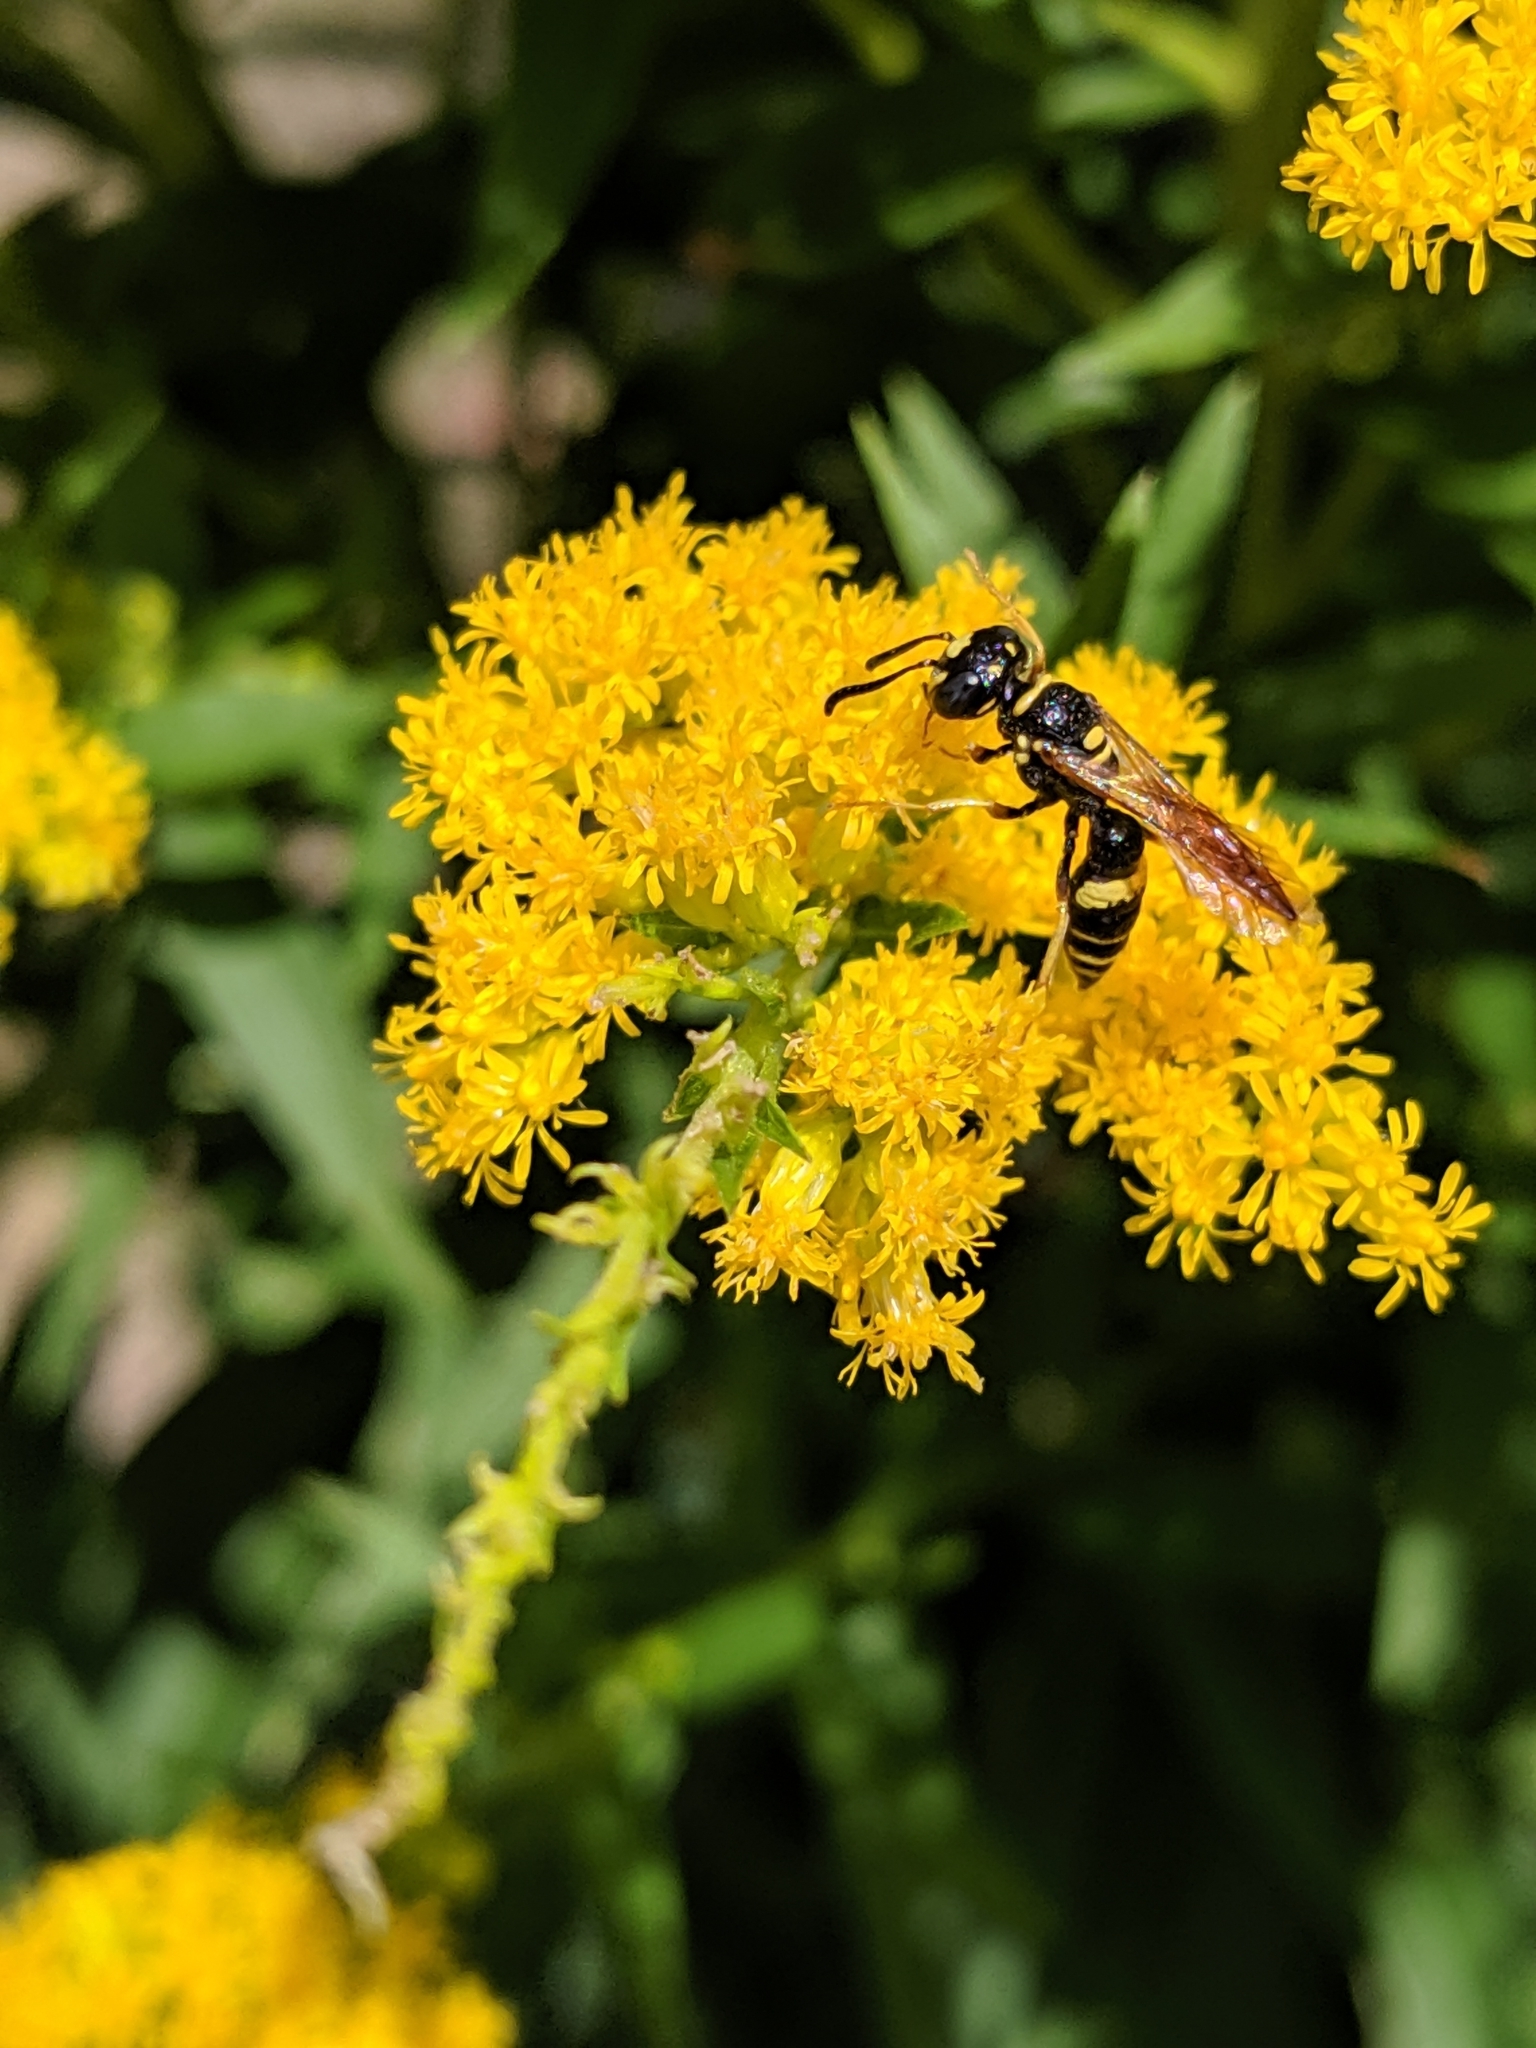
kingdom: Animalia
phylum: Arthropoda
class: Insecta
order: Hymenoptera
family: Crabronidae
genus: Philanthus
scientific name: Philanthus gibbosus
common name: Humped beewolf
